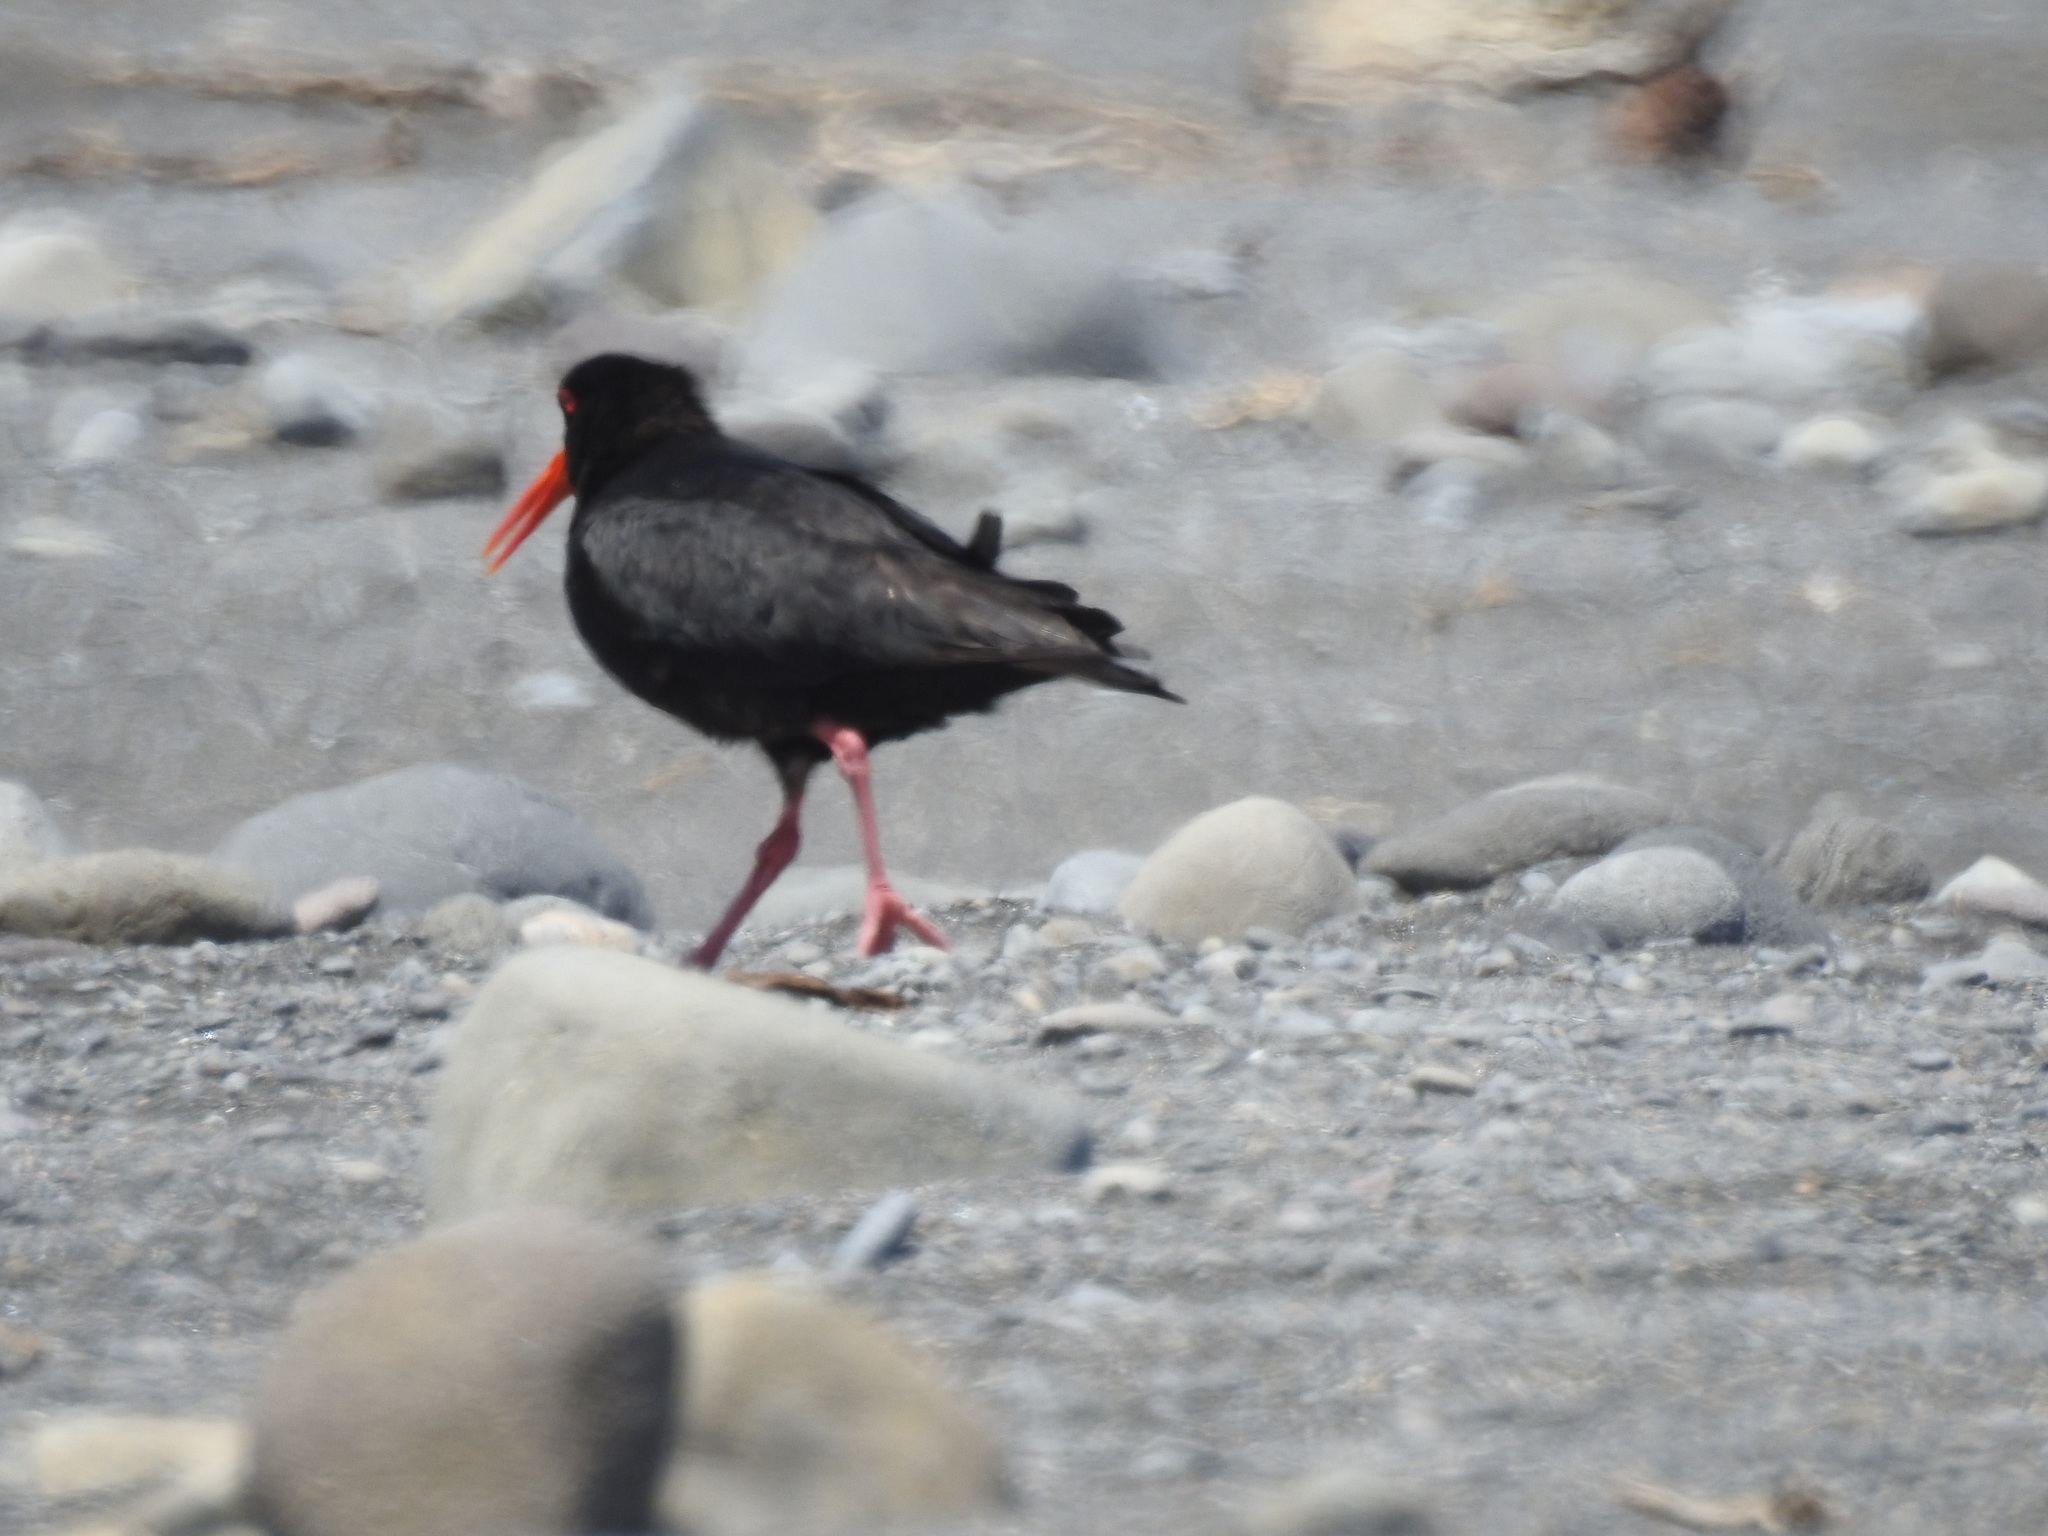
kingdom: Animalia
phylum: Chordata
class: Aves
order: Charadriiformes
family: Haematopodidae
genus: Haematopus
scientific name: Haematopus unicolor
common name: Variable oystercatcher
